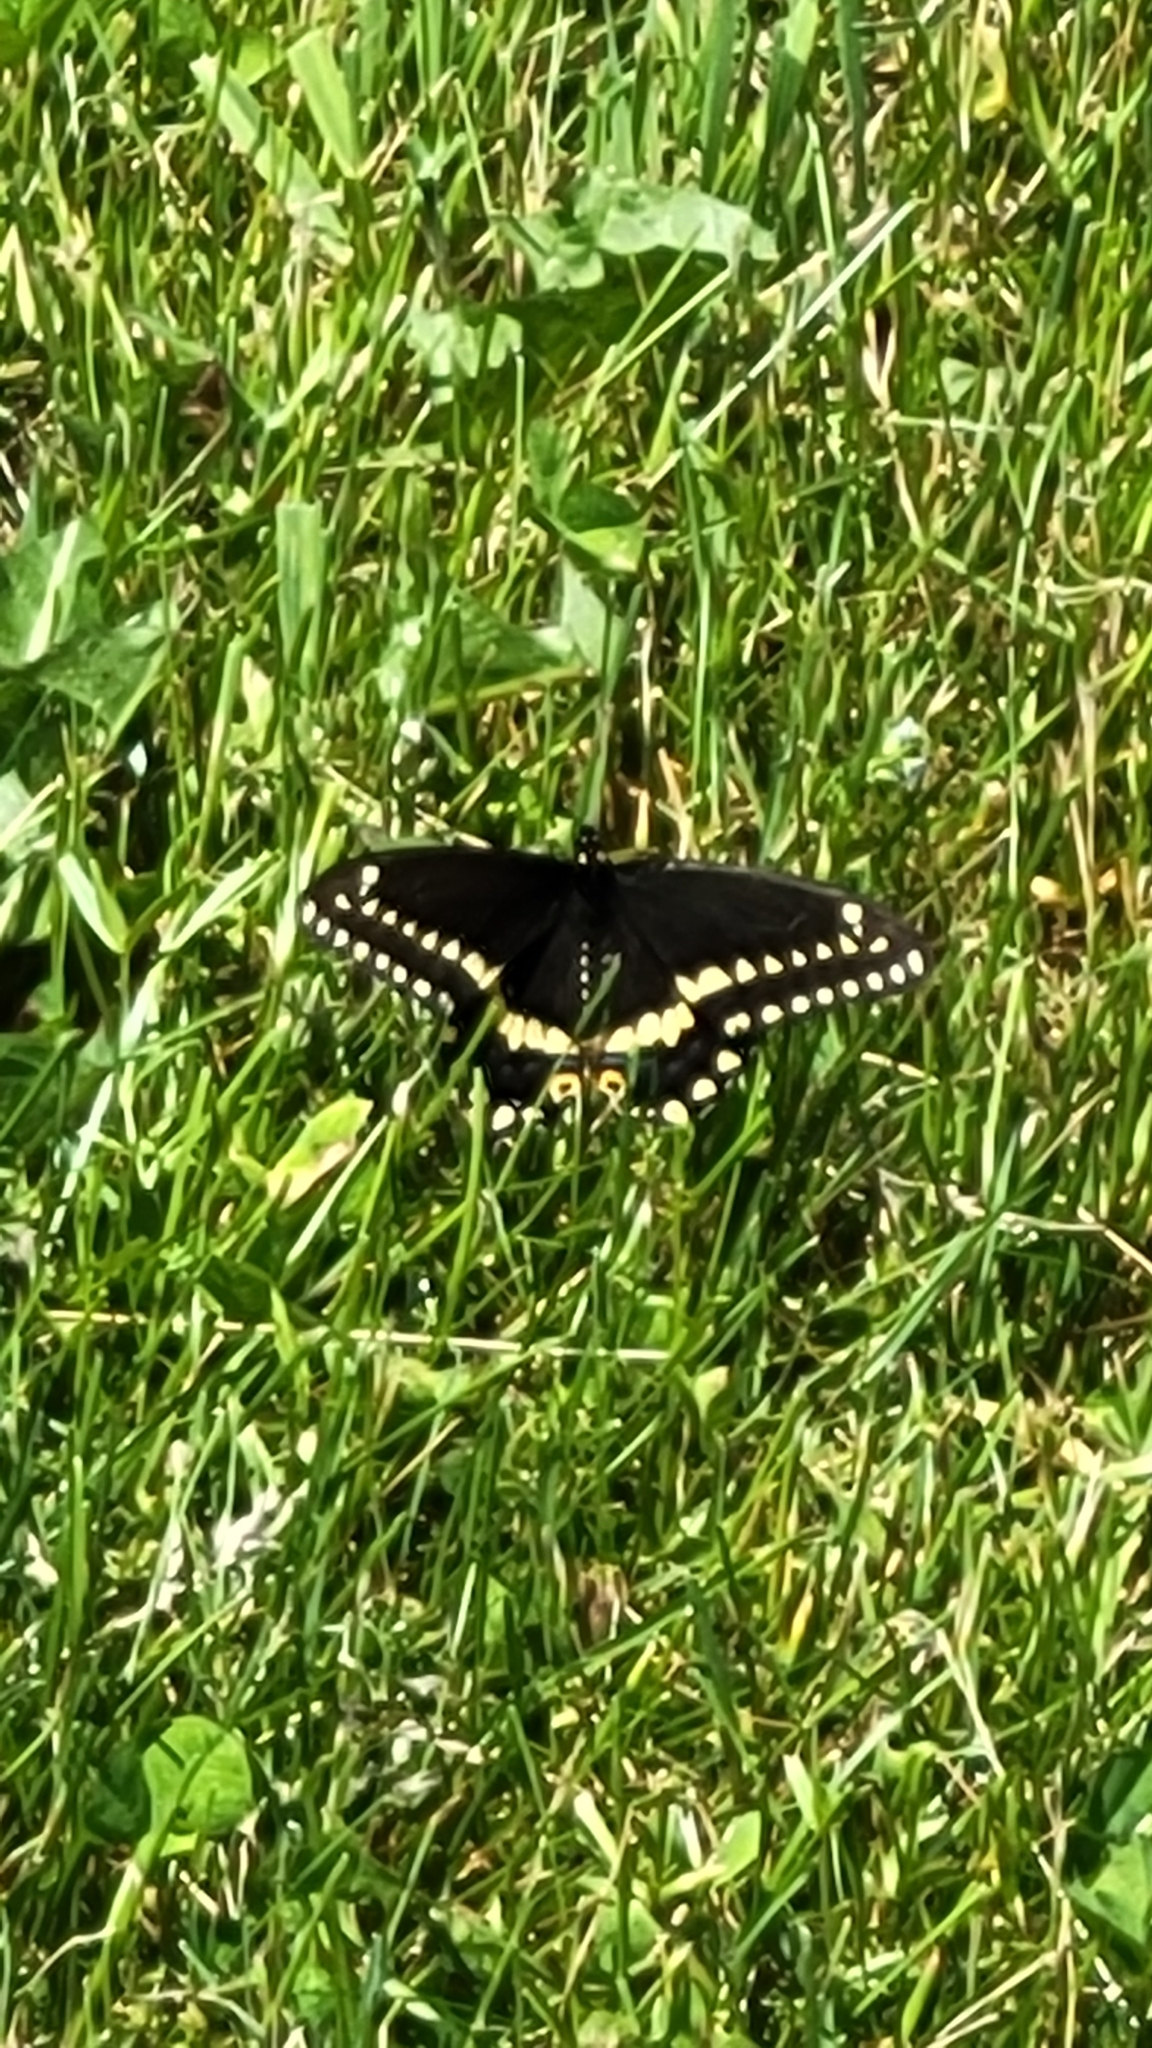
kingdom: Animalia
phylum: Arthropoda
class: Insecta
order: Lepidoptera
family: Papilionidae
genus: Papilio
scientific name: Papilio polyxenes
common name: Black swallowtail
